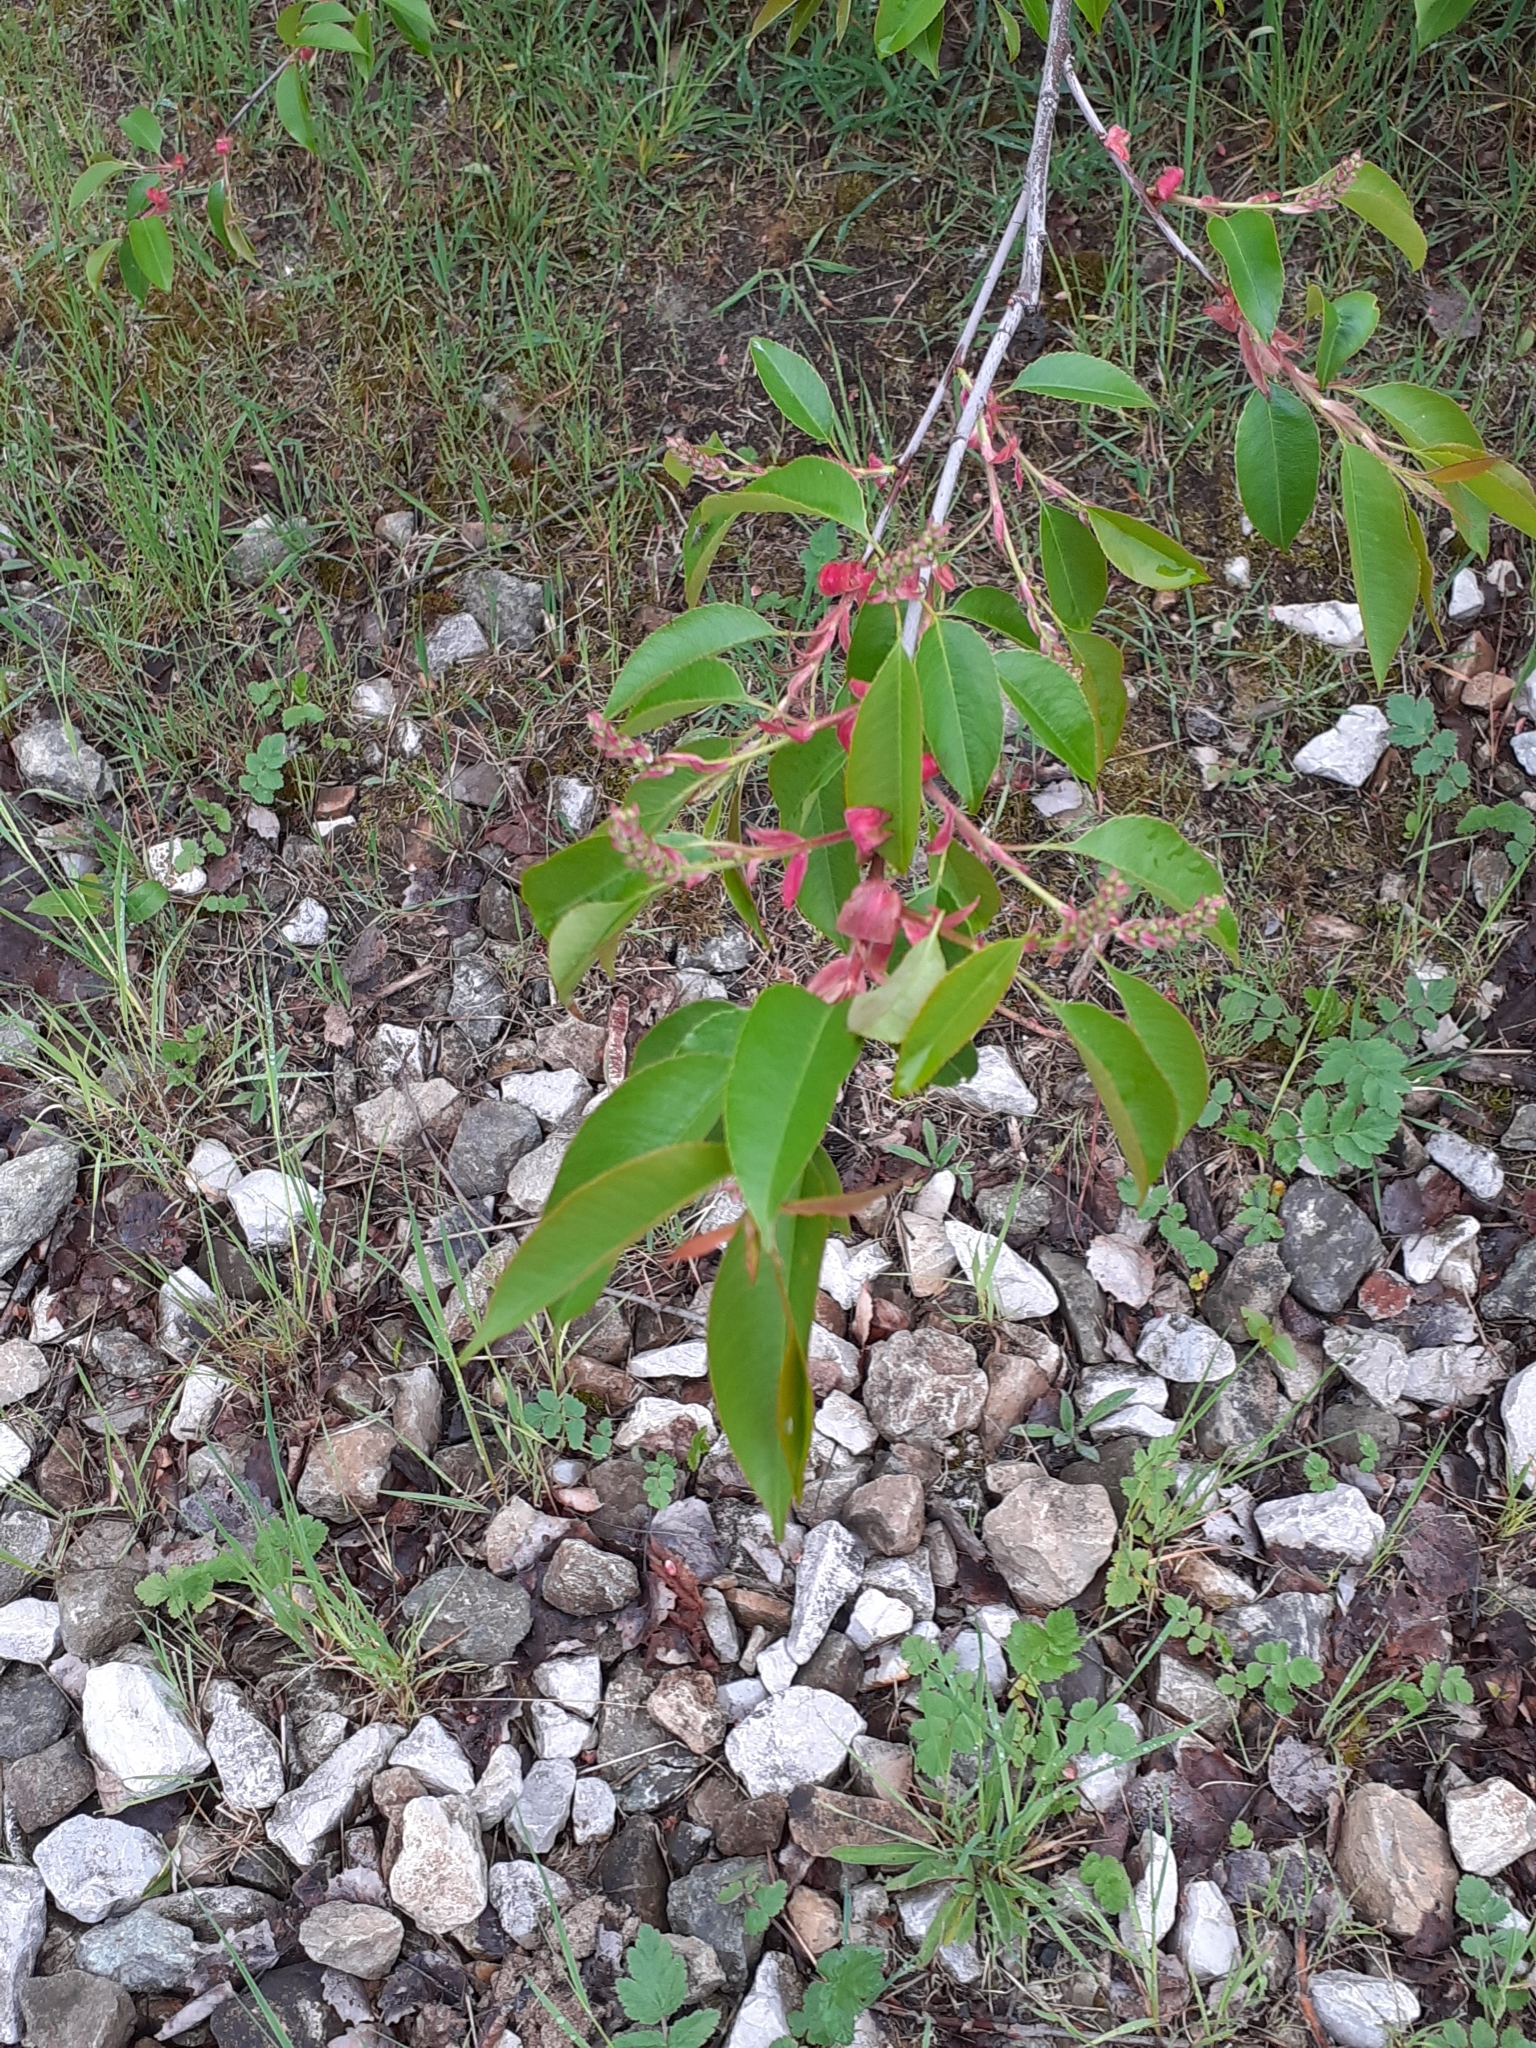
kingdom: Plantae
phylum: Tracheophyta
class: Magnoliopsida
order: Rosales
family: Rosaceae
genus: Prunus
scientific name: Prunus serotina
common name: Black cherry
